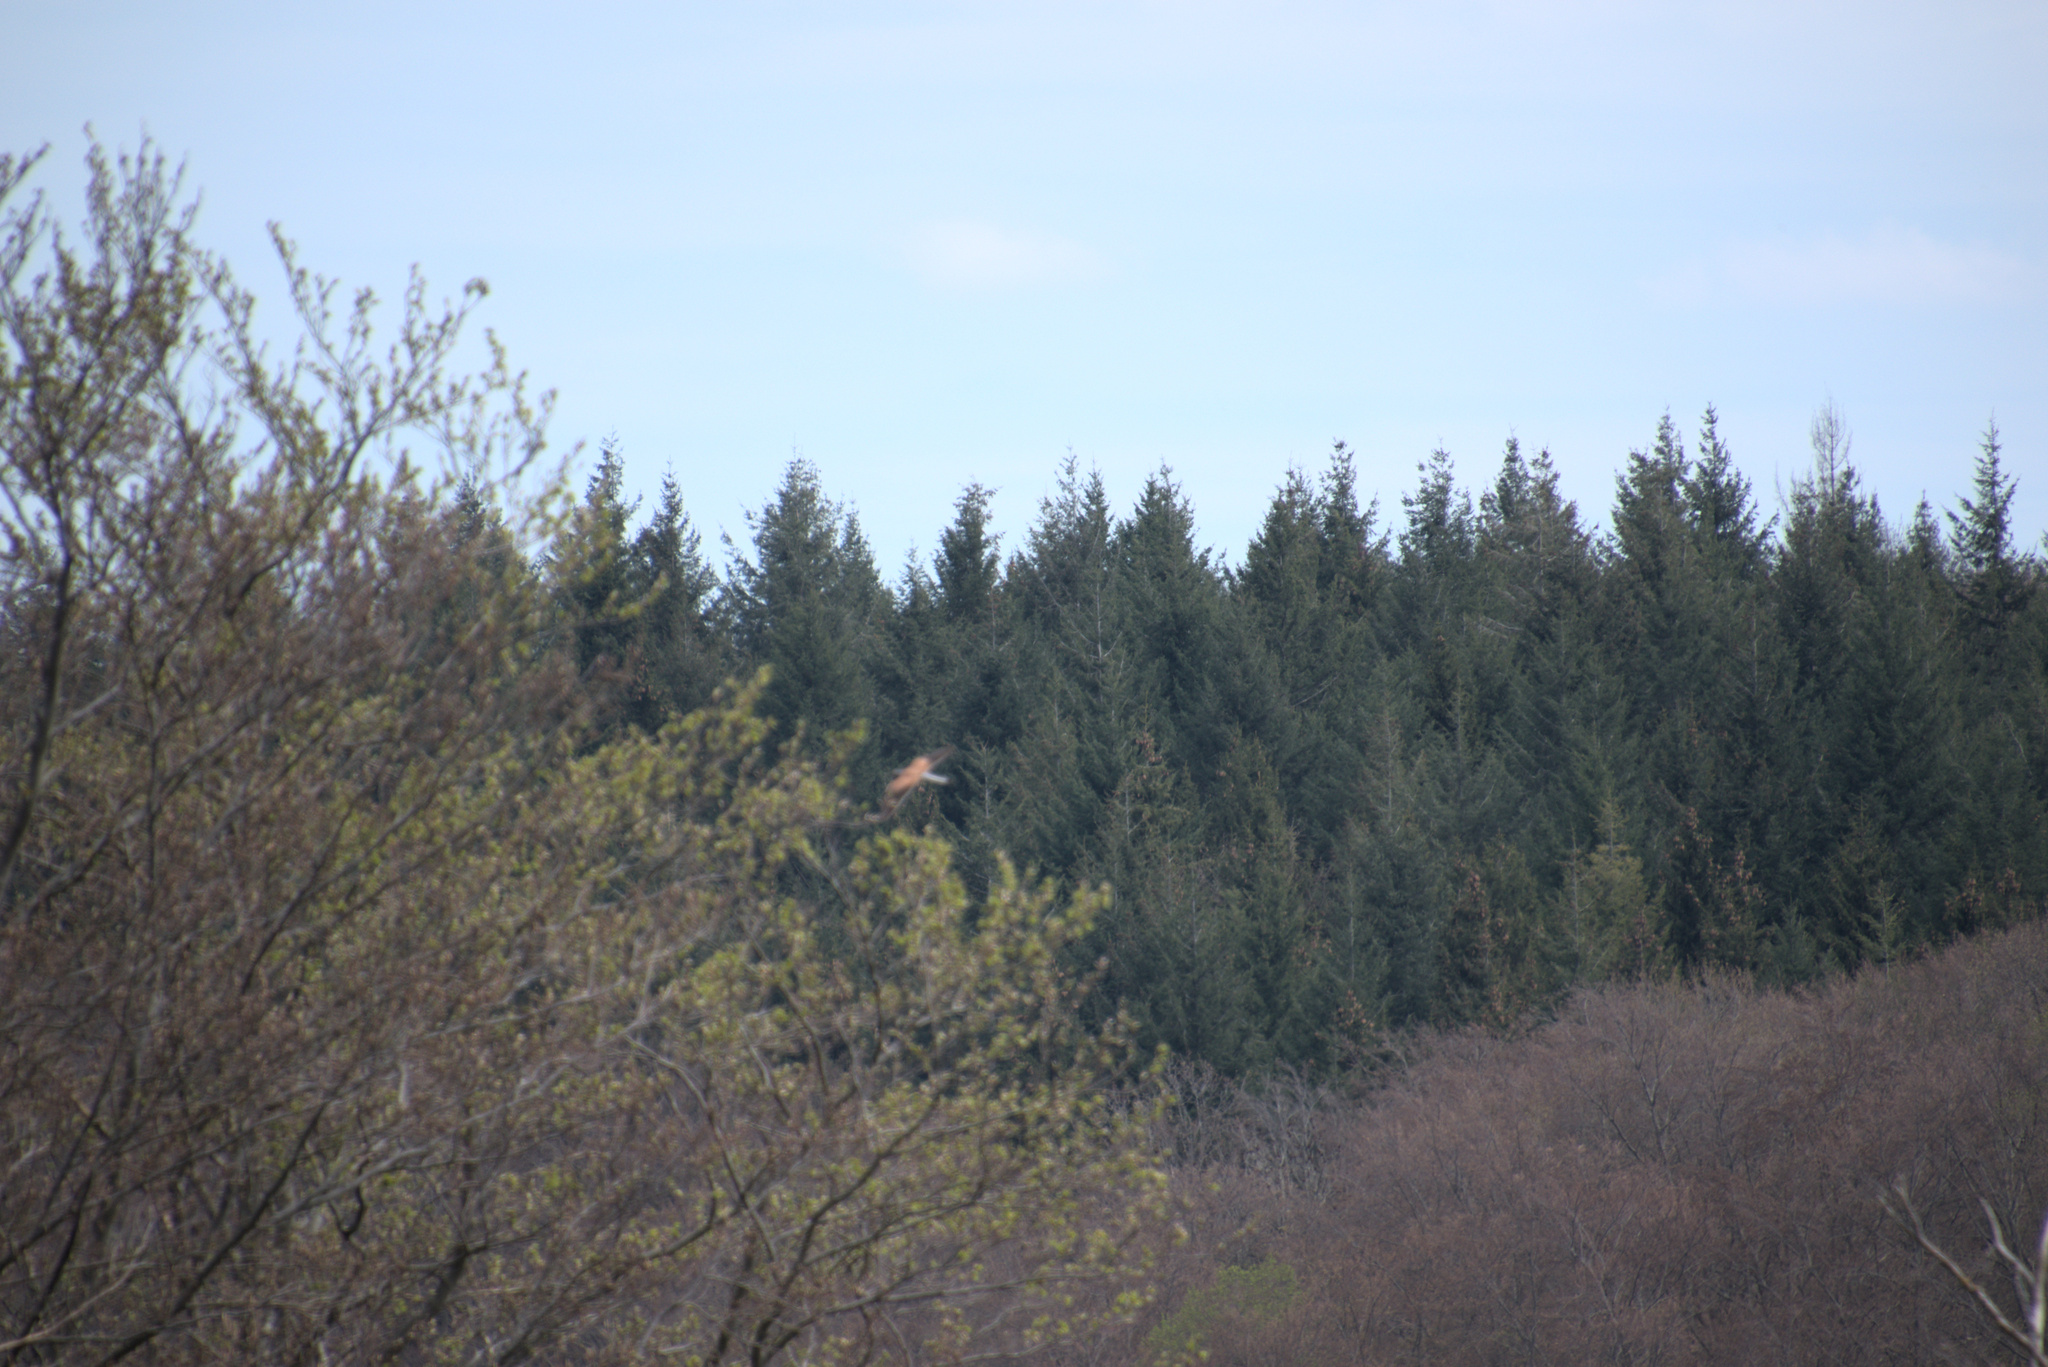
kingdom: Animalia
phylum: Chordata
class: Aves
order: Falconiformes
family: Falconidae
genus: Falco
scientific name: Falco tinnunculus
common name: Common kestrel
